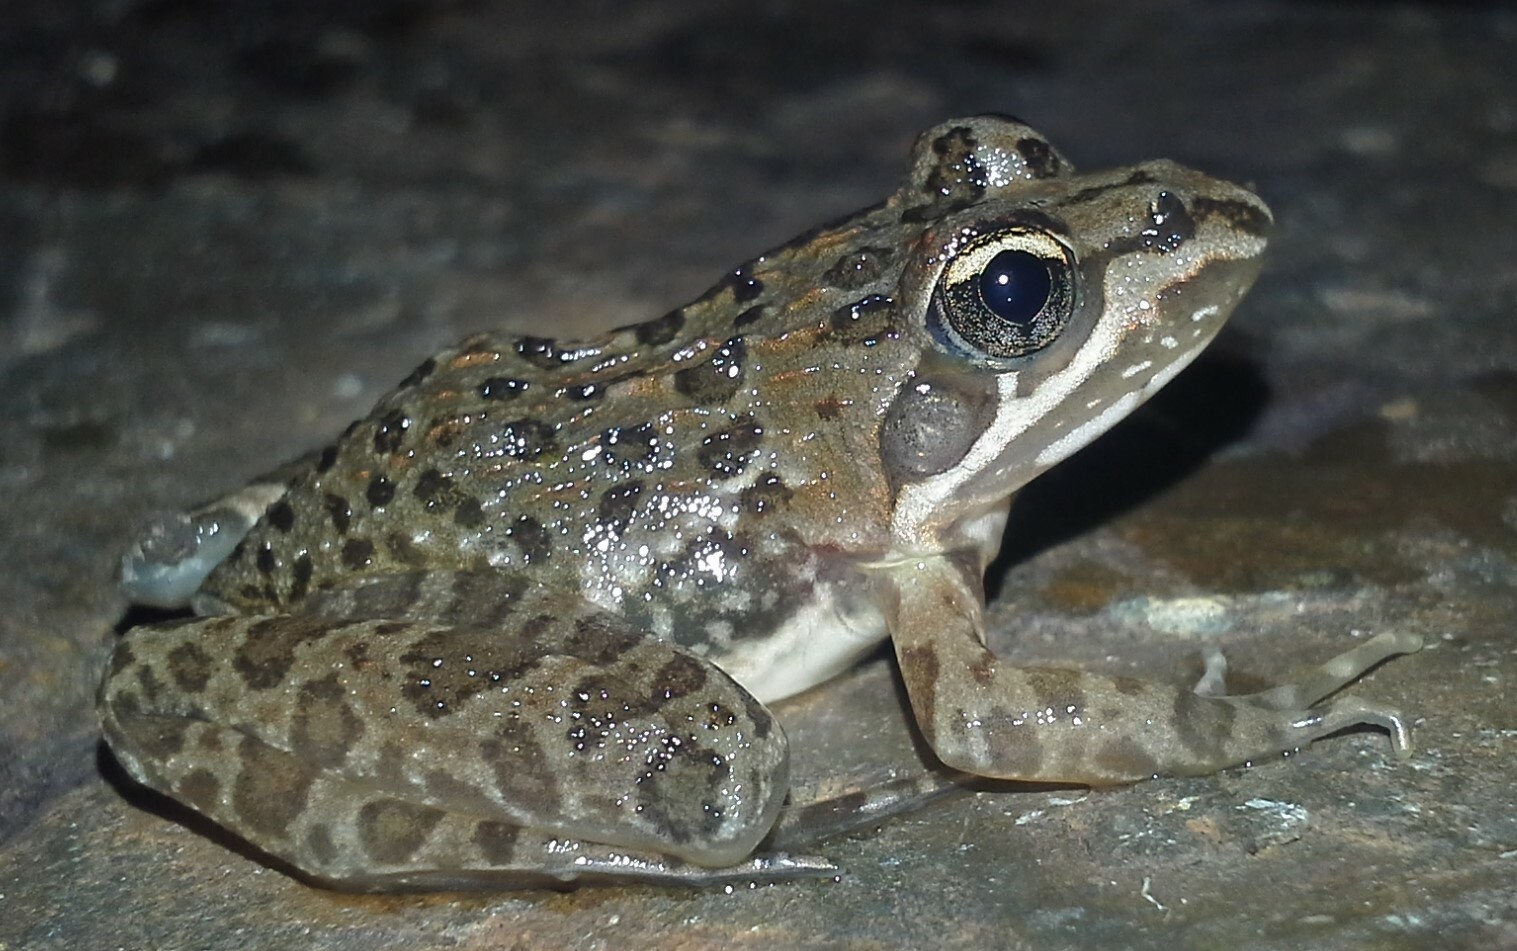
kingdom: Animalia
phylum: Chordata
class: Amphibia
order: Anura
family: Pyxicephalidae
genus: Amietia
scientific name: Amietia delalandii
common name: Delalande's river frog
